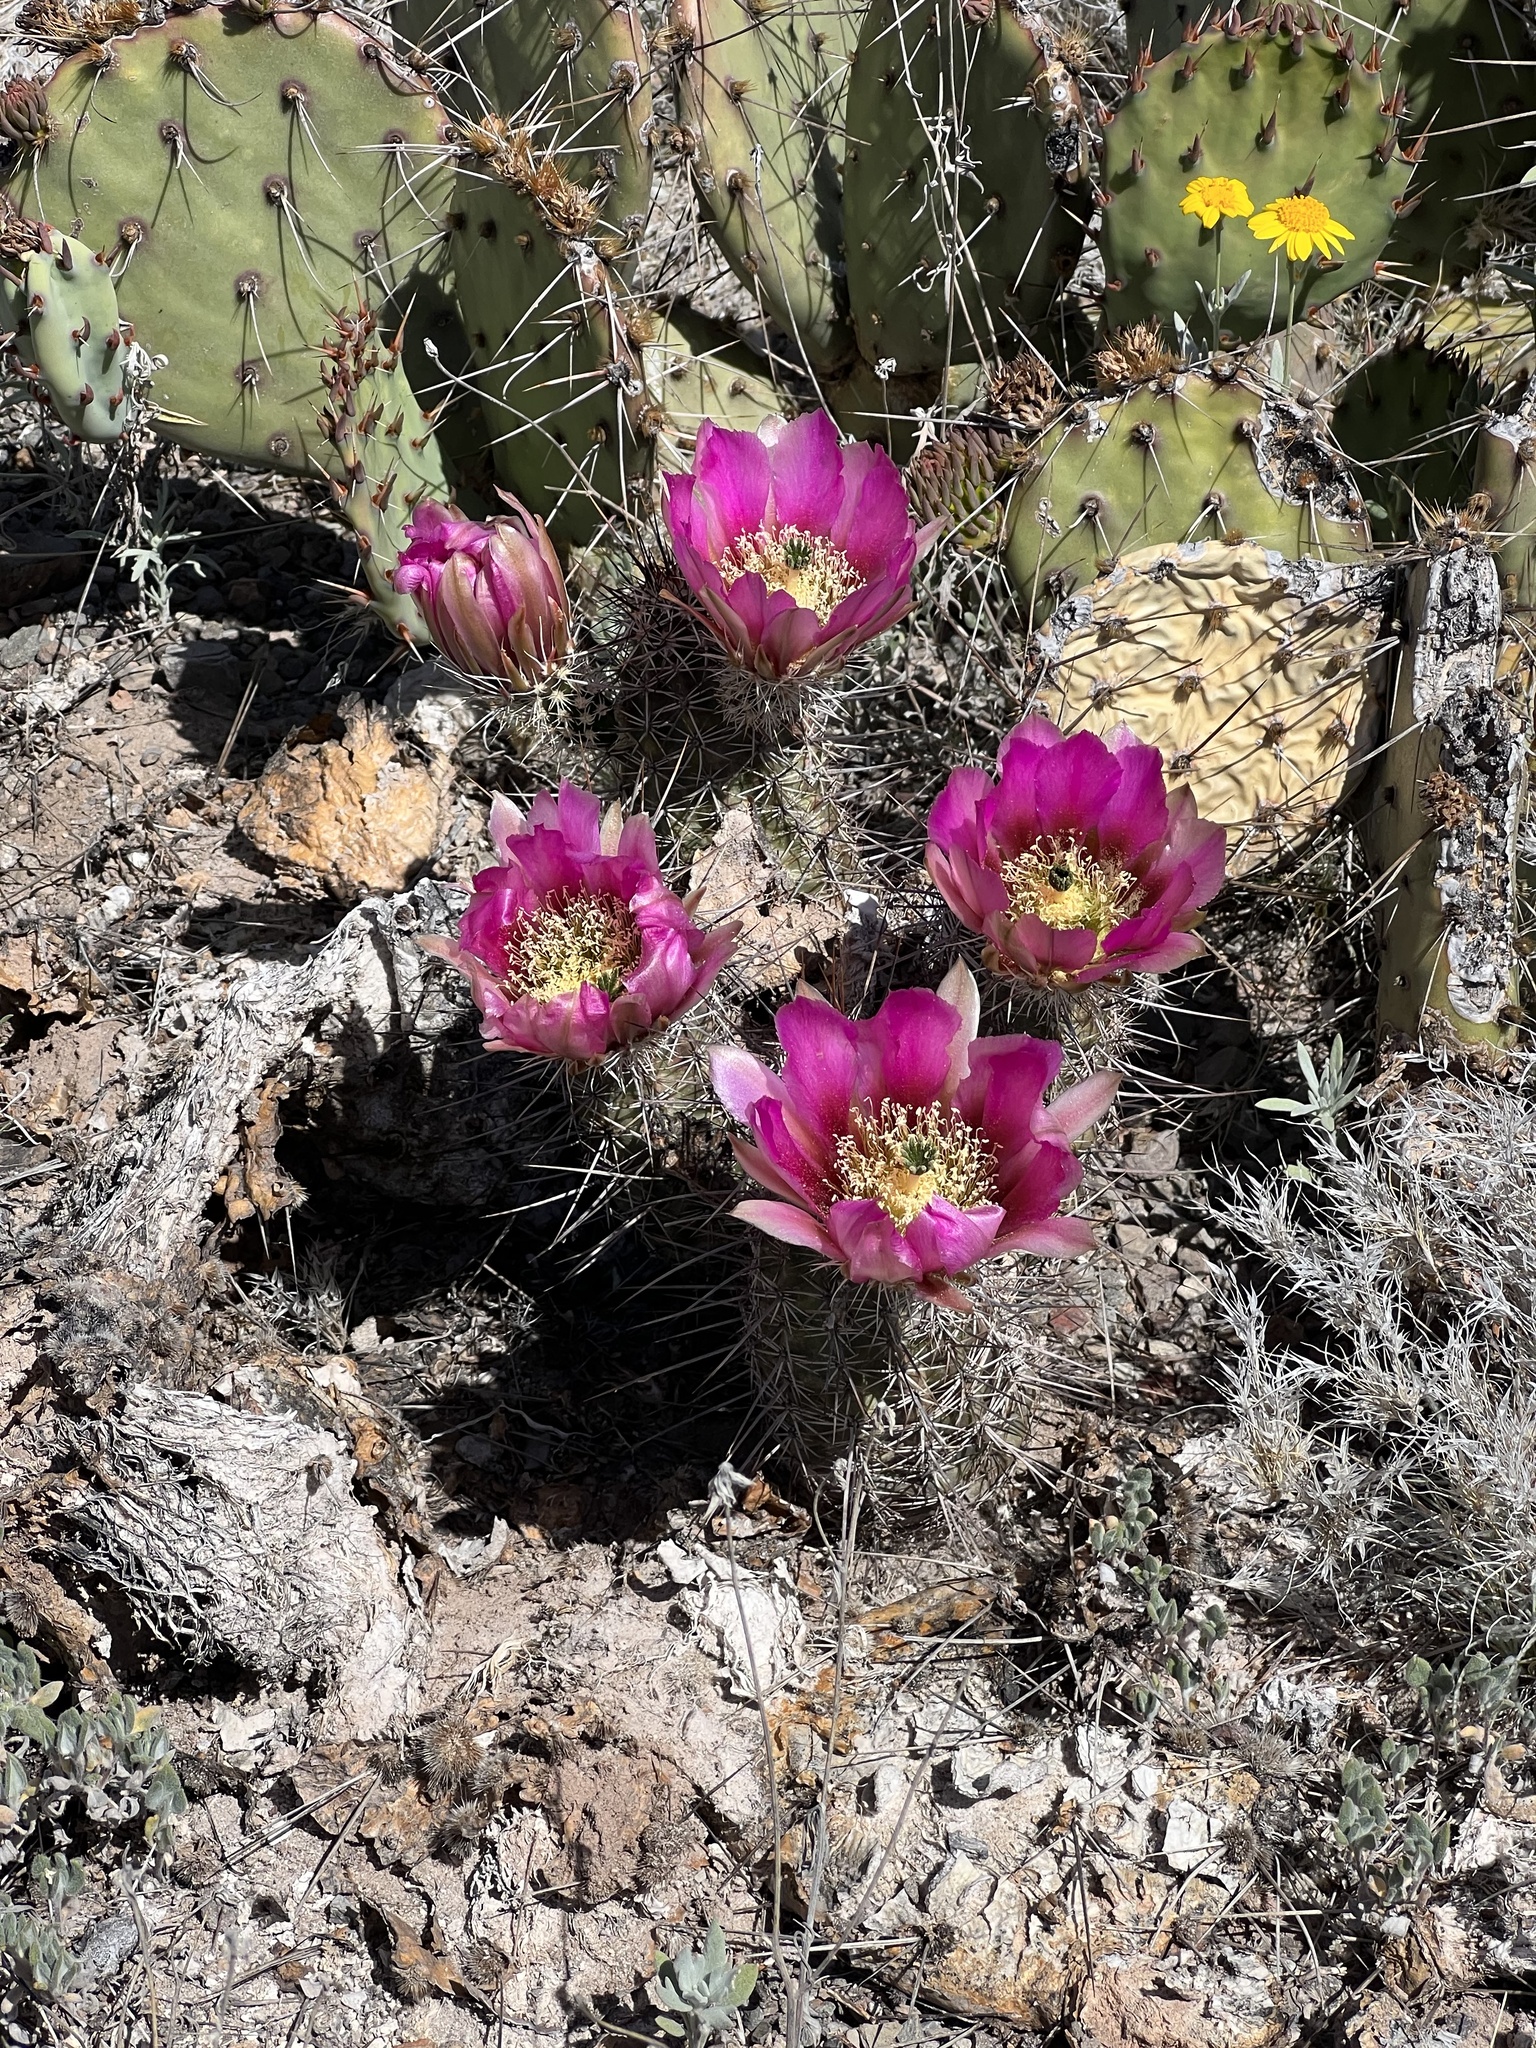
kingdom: Plantae
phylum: Tracheophyta
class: Magnoliopsida
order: Caryophyllales
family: Cactaceae
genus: Echinocereus
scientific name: Echinocereus fasciculatus
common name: Bundle hedgehog
